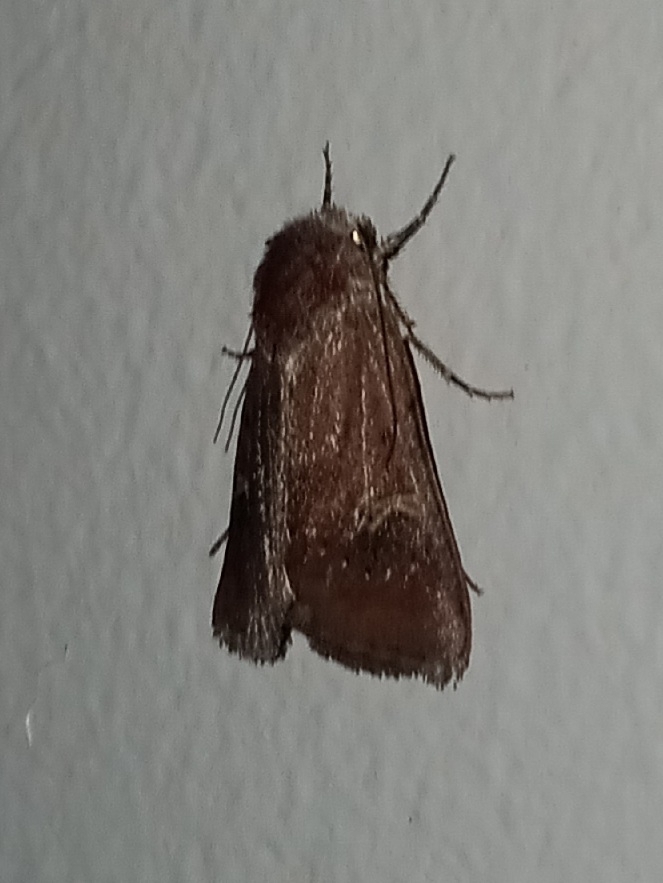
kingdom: Animalia
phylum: Arthropoda
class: Insecta
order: Lepidoptera
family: Noctuidae
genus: Eucoptocnemis
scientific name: Eucoptocnemis fimbriaris
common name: Fringed dart
